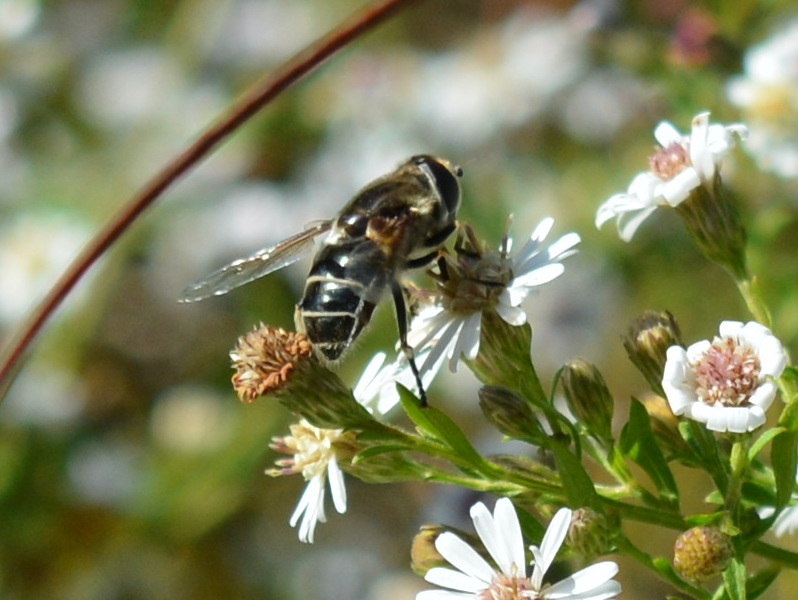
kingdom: Animalia
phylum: Arthropoda
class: Insecta
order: Diptera
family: Syrphidae
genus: Eristalis
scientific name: Eristalis dimidiata
